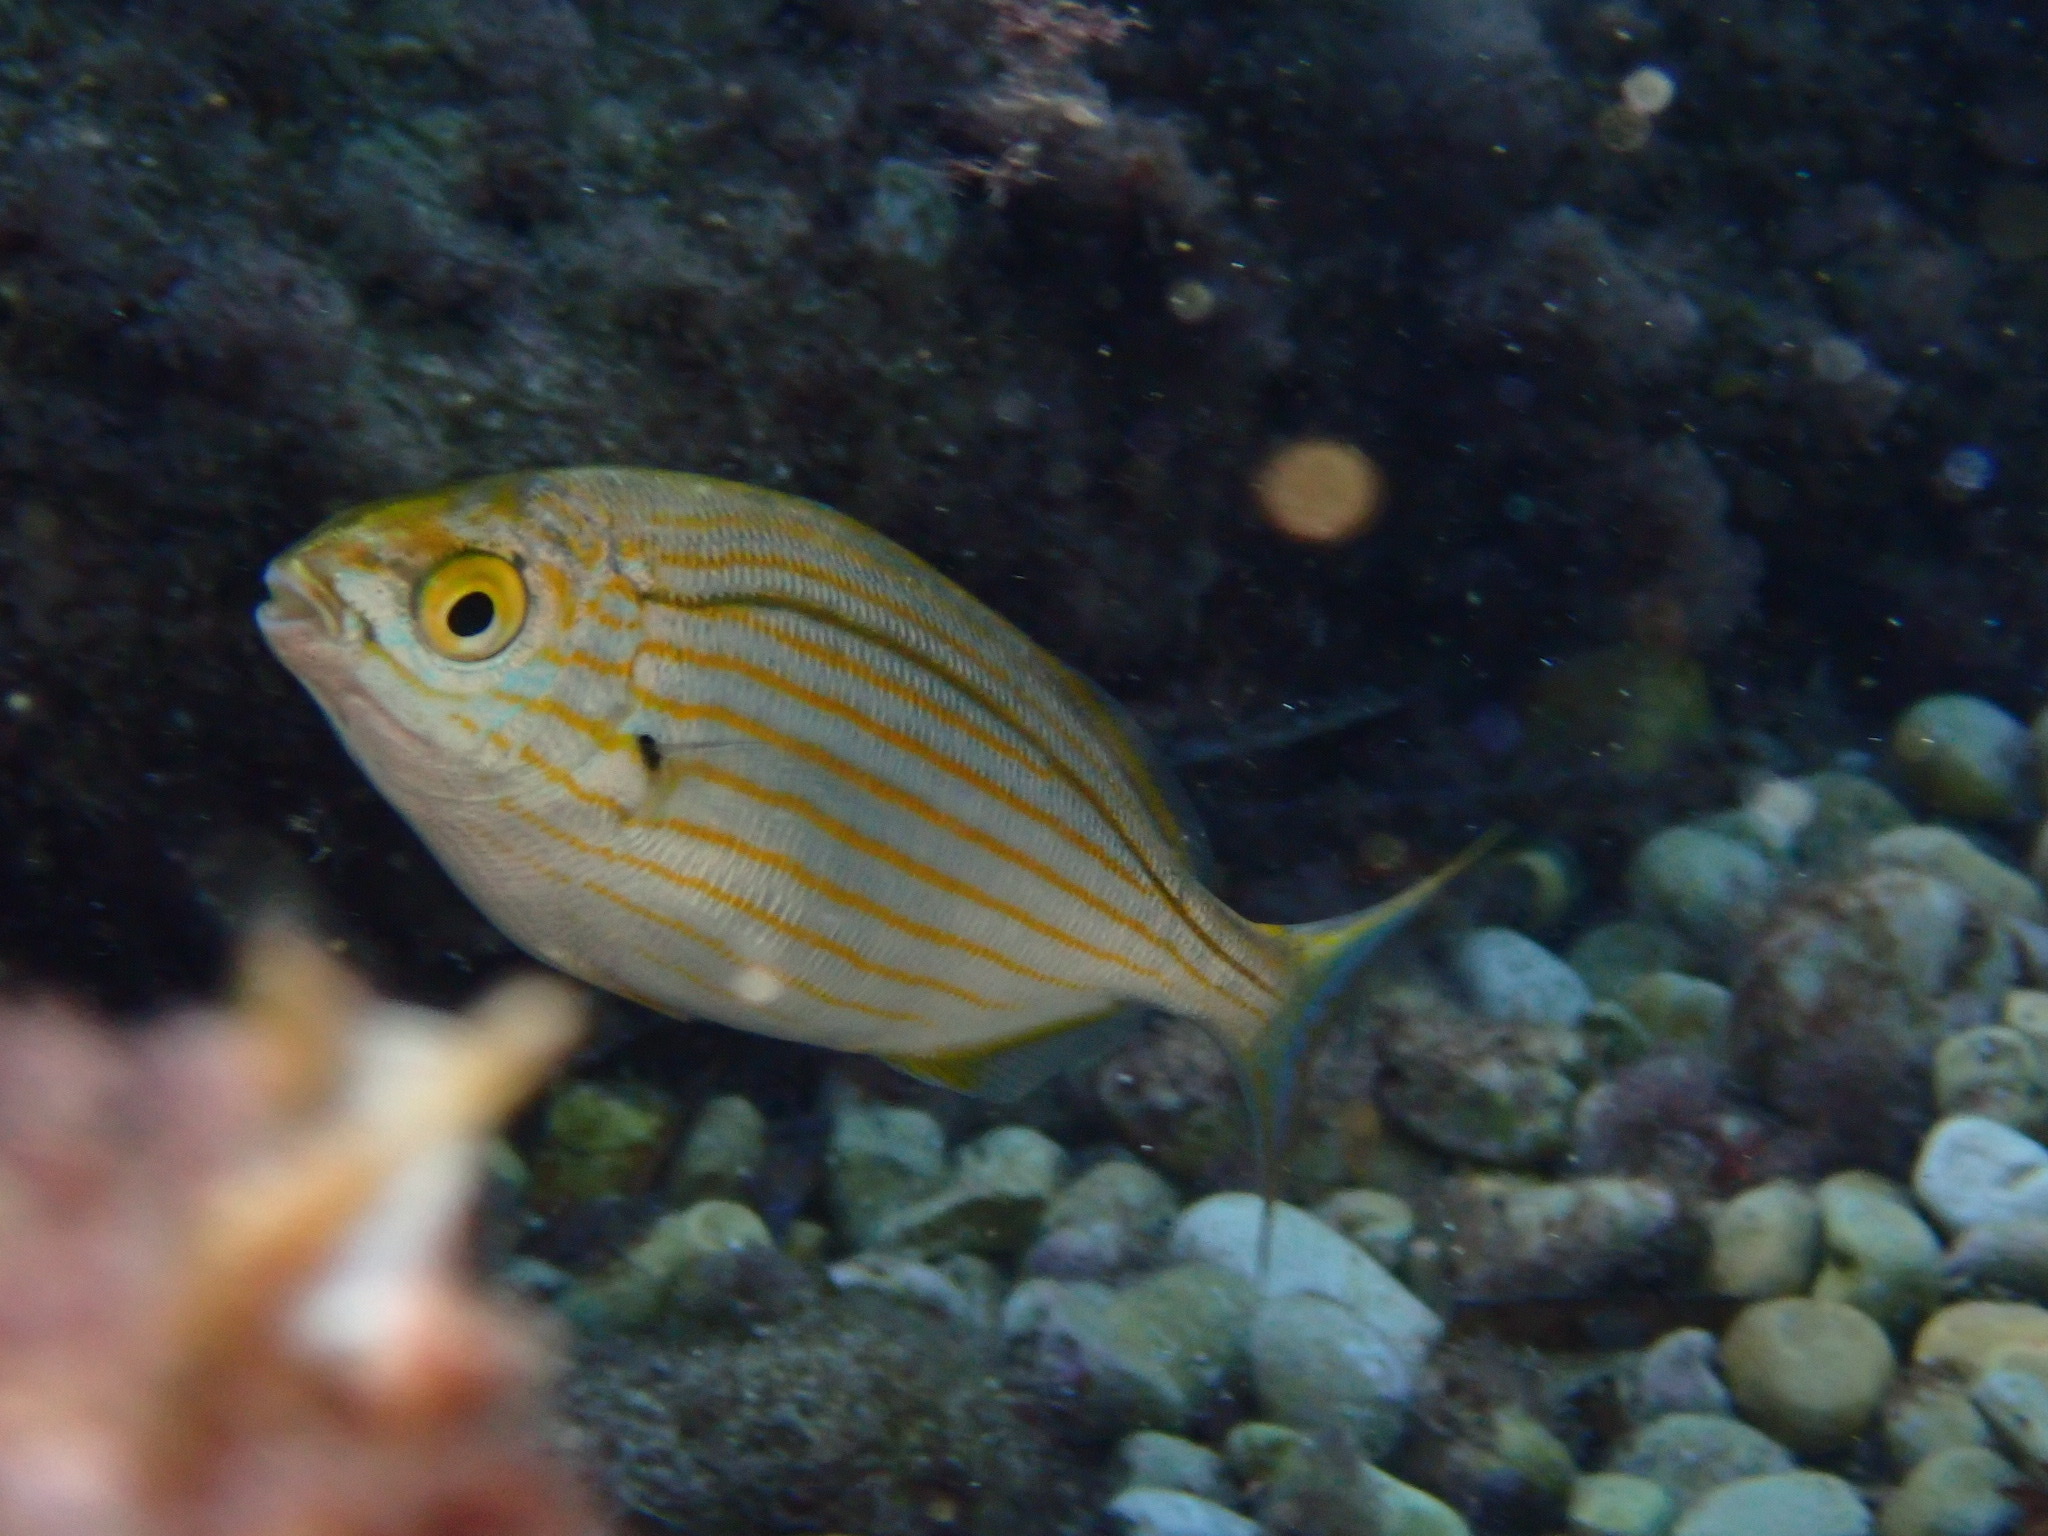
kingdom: Animalia
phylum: Chordata
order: Perciformes
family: Sparidae
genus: Sarpa
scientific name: Sarpa salpa
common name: Salema
